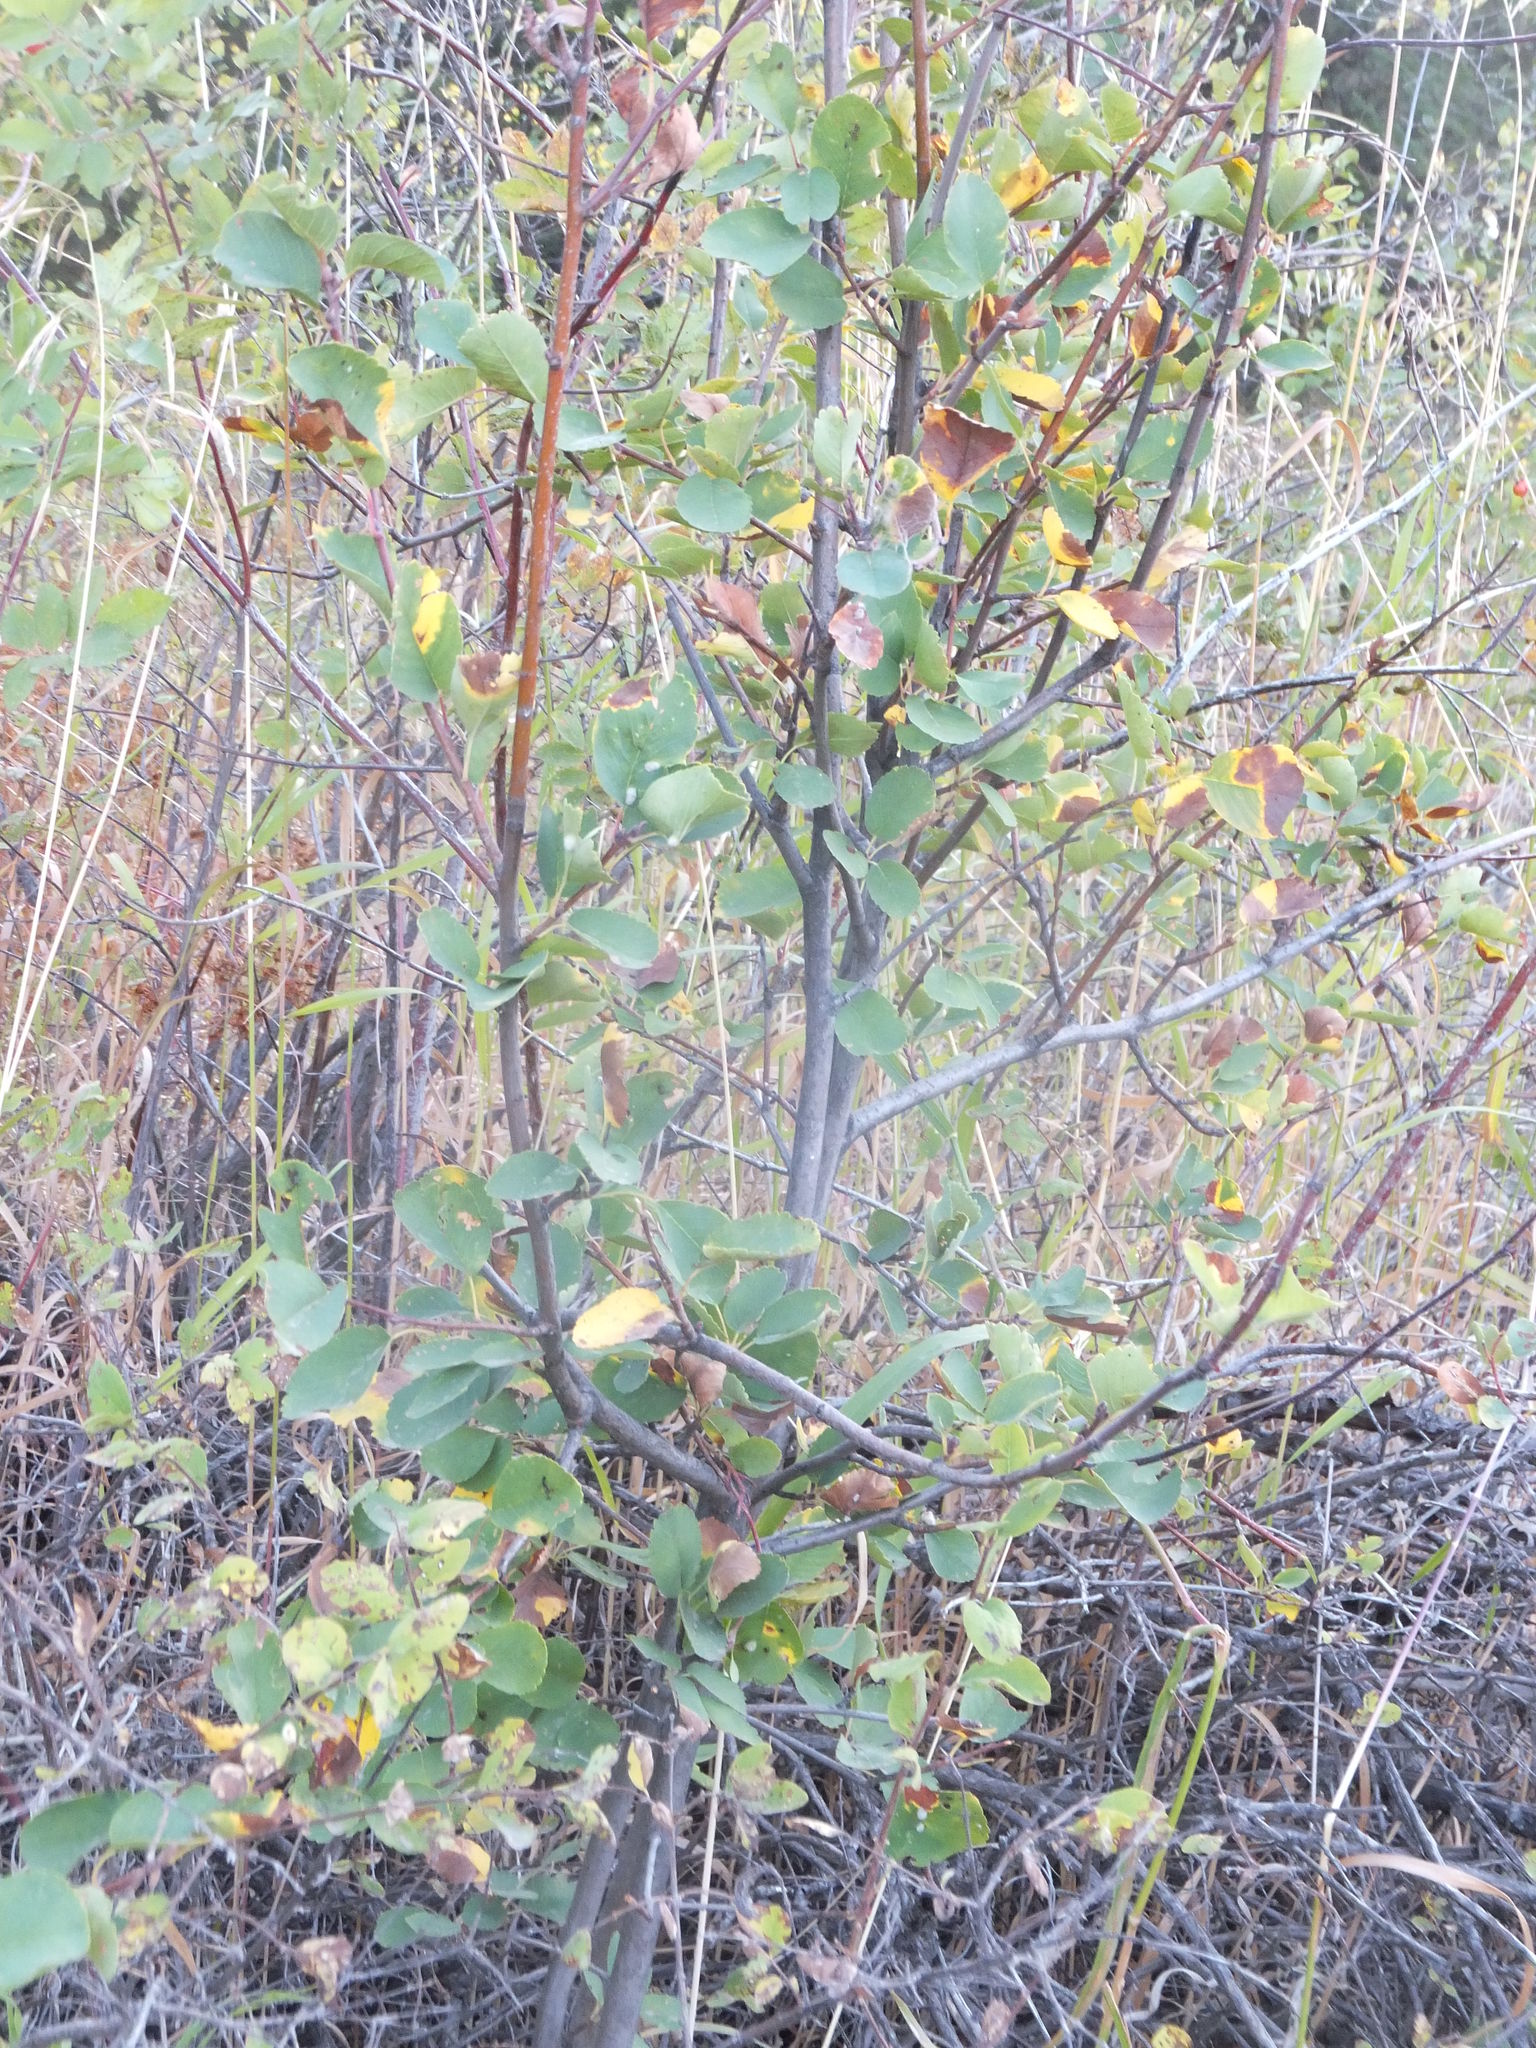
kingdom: Plantae
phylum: Tracheophyta
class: Magnoliopsida
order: Rosales
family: Rosaceae
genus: Amelanchier
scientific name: Amelanchier alnifolia
